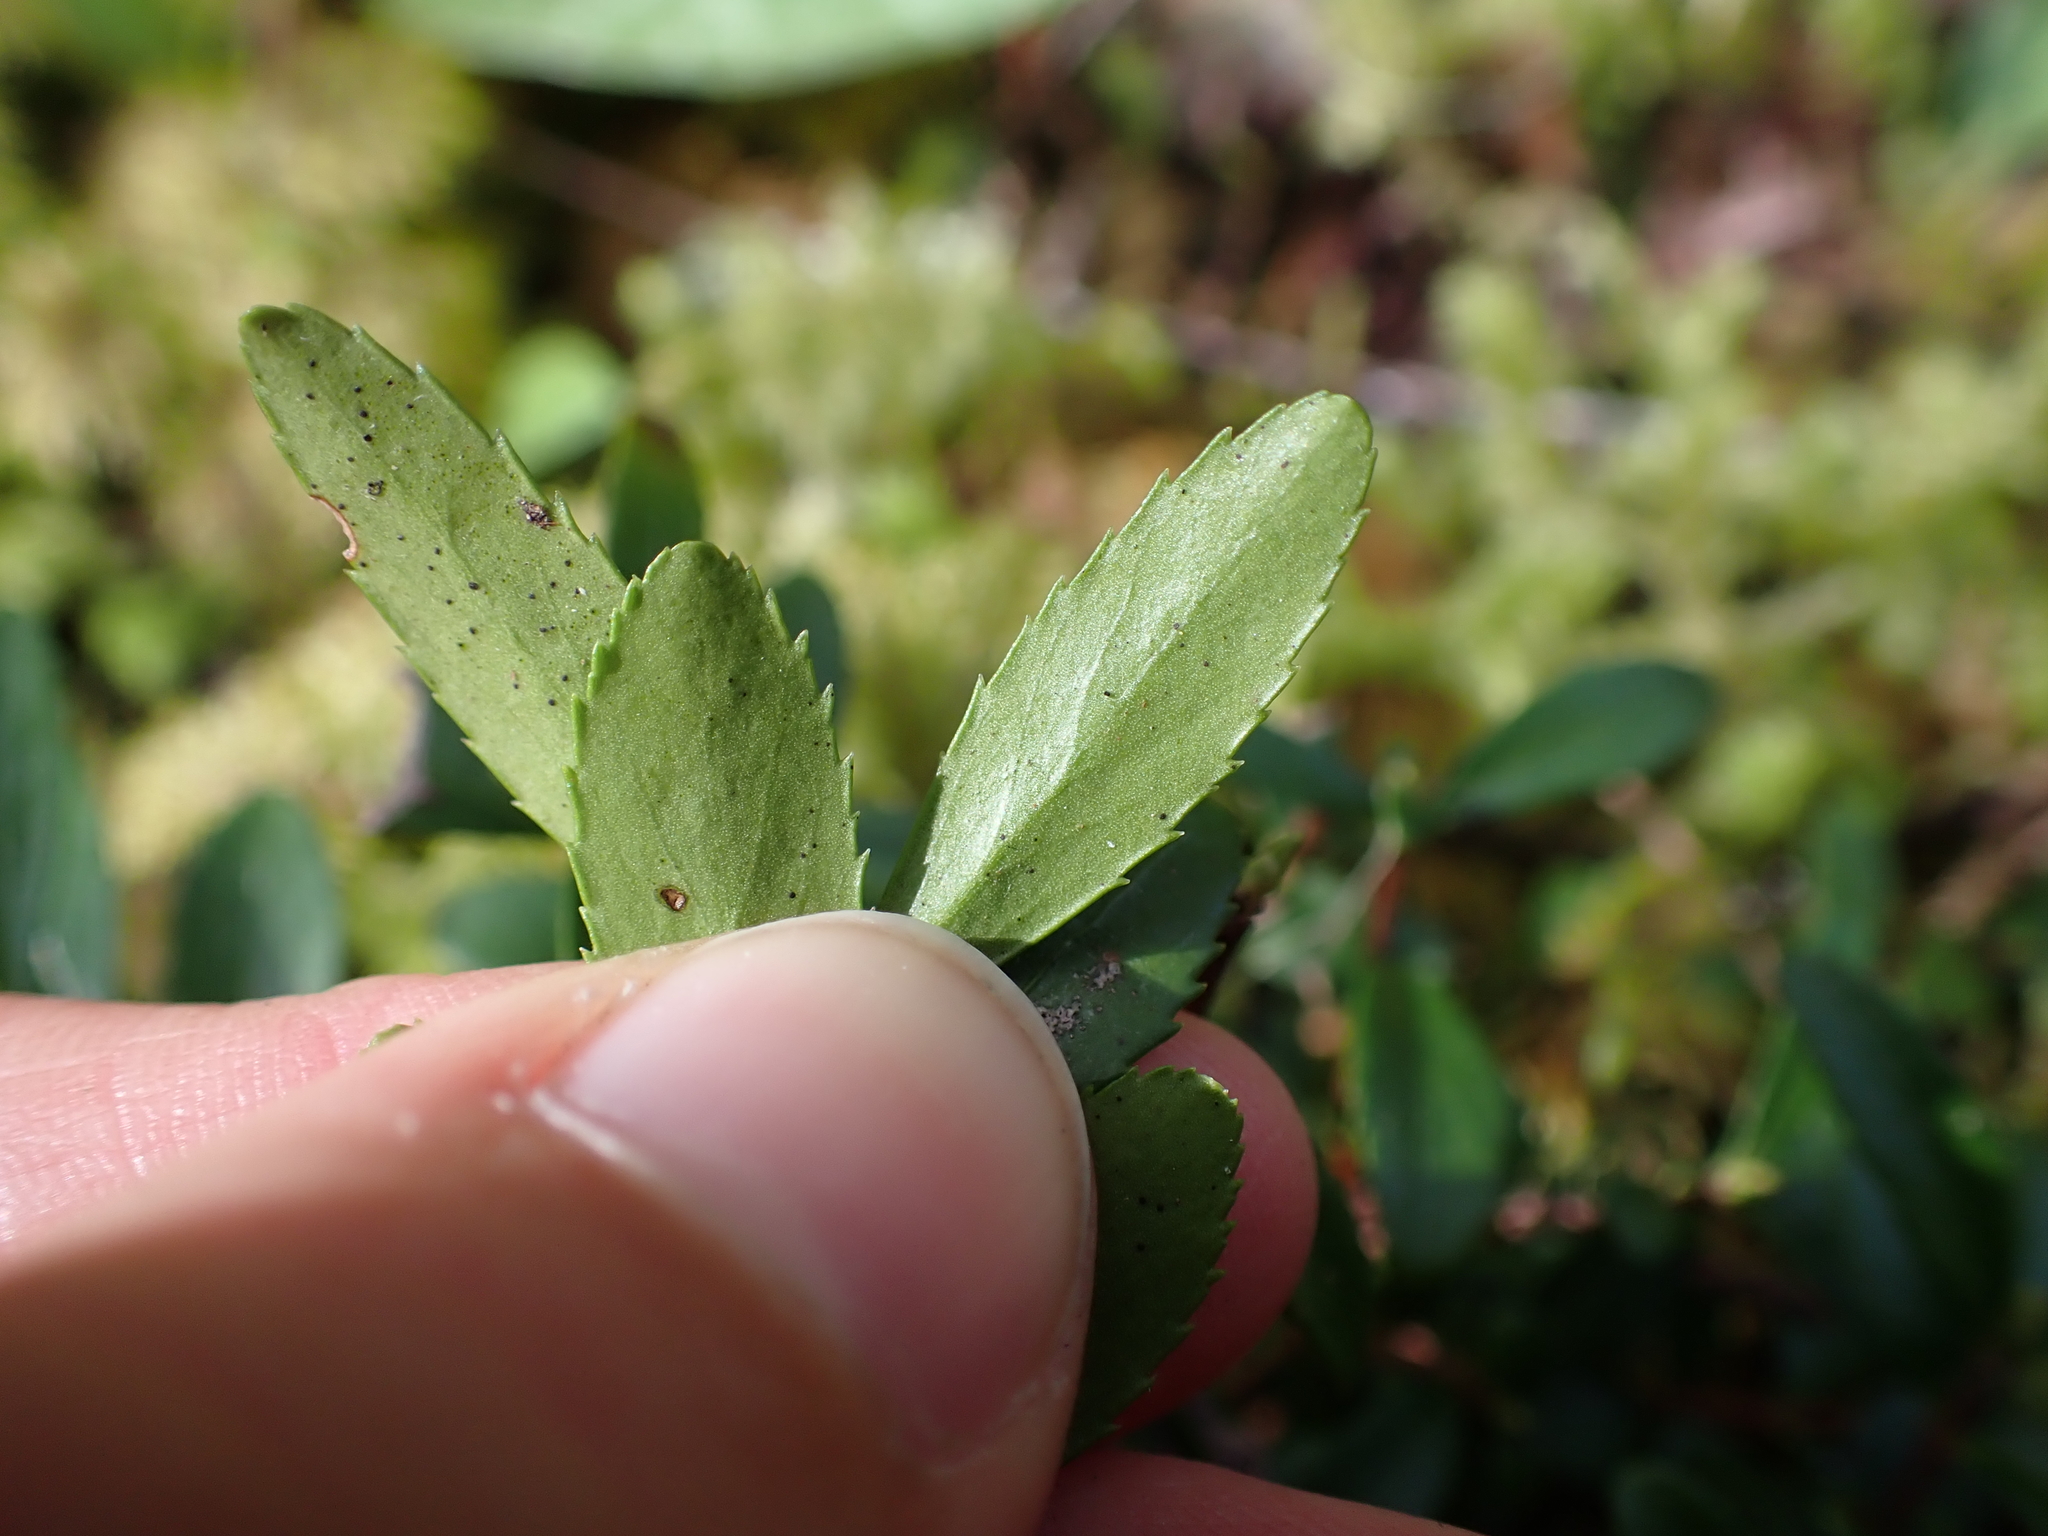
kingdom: Plantae
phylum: Tracheophyta
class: Magnoliopsida
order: Celastrales
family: Celastraceae
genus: Paxistima
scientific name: Paxistima myrsinites
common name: Mountain-lover
